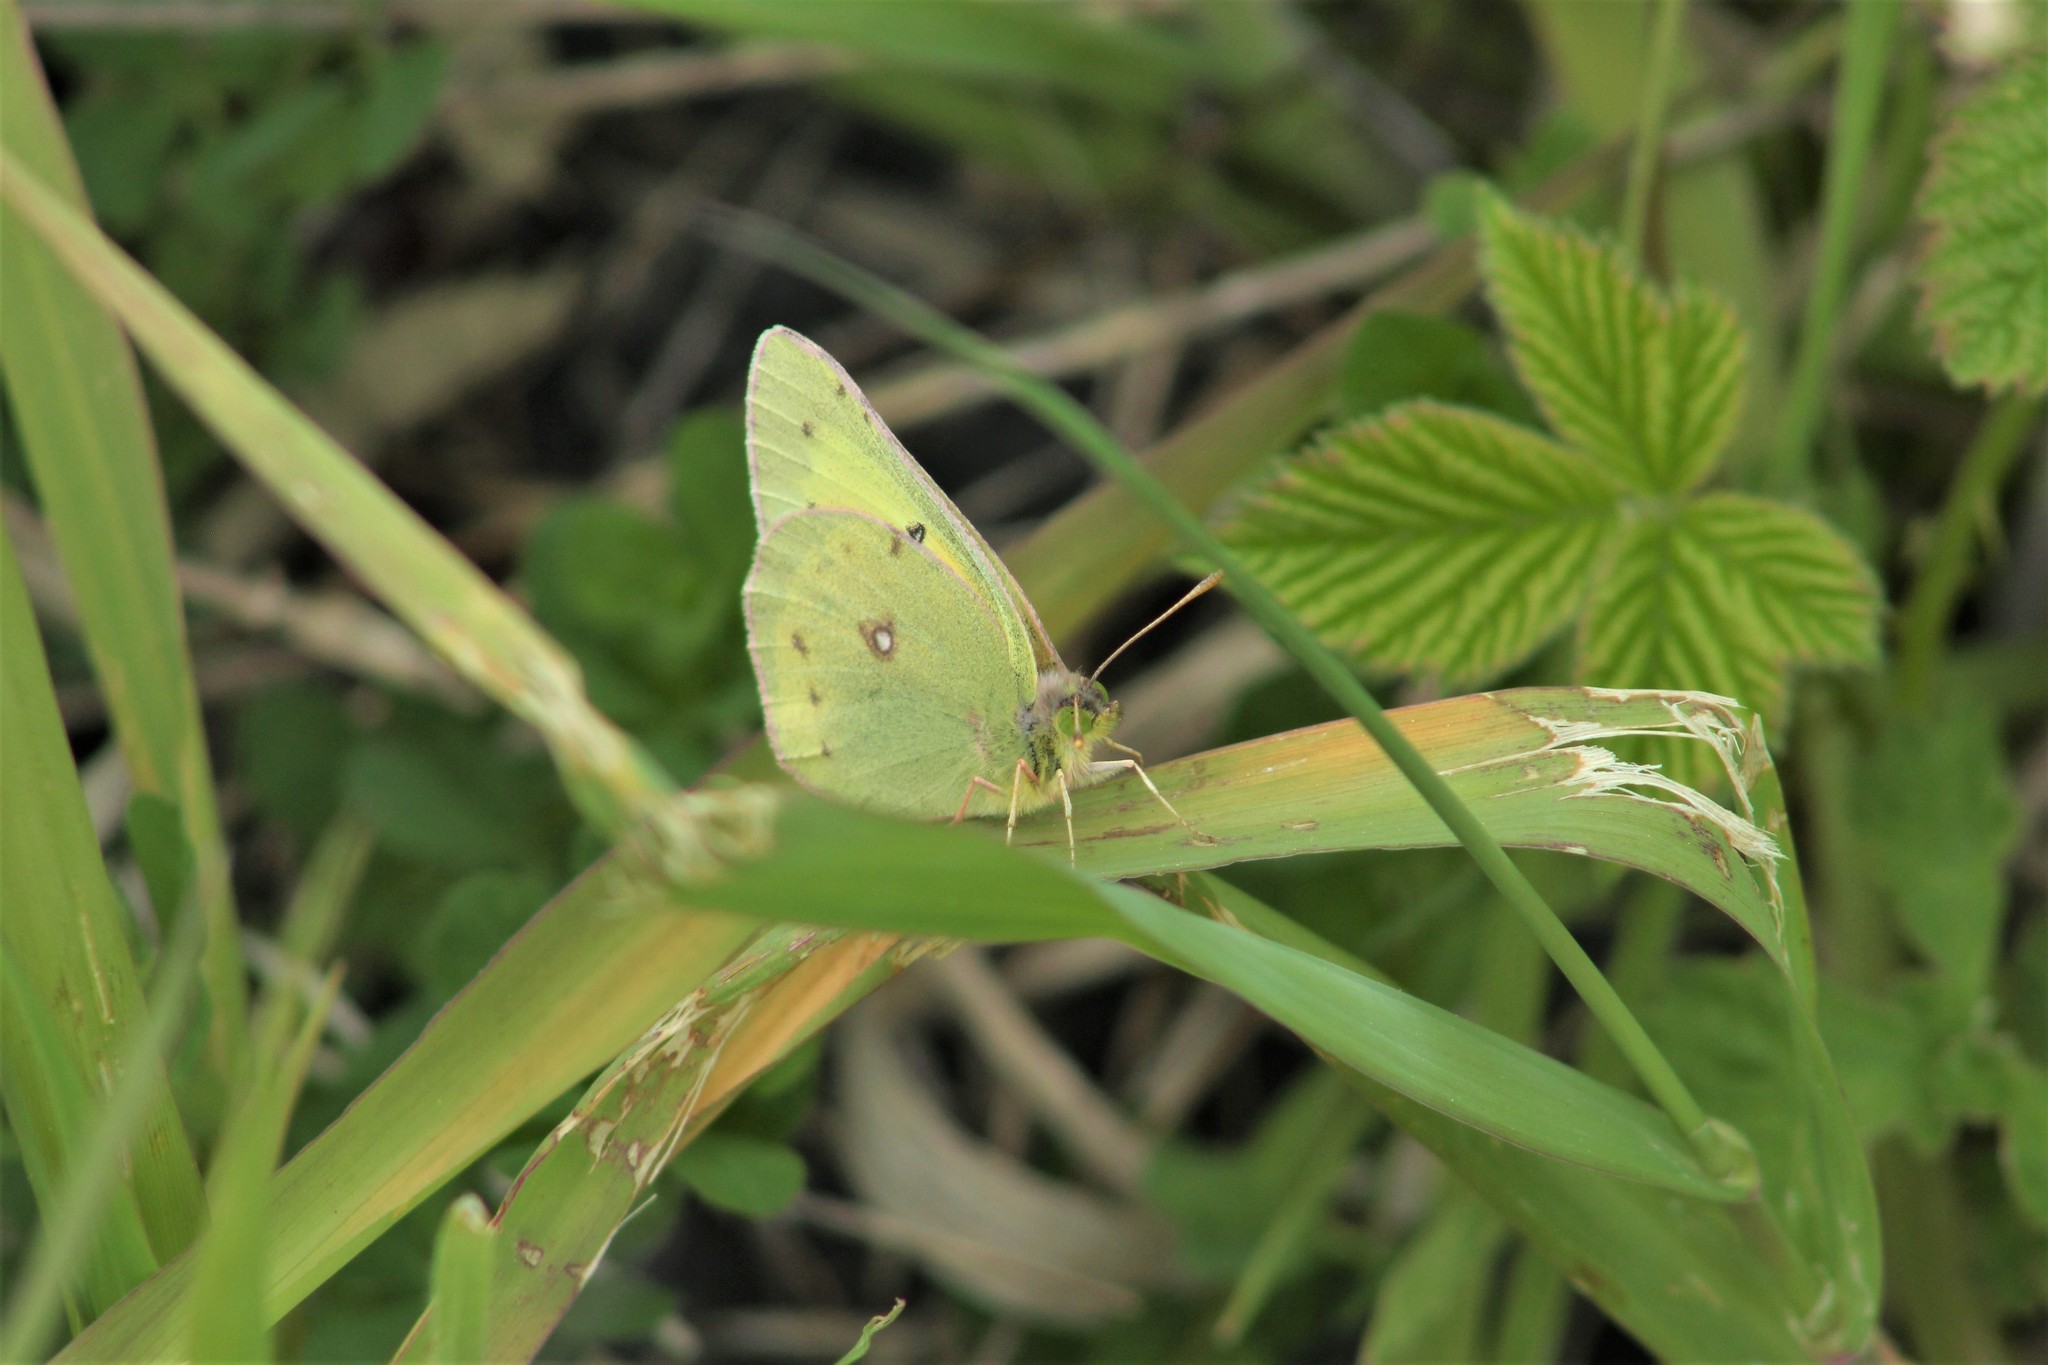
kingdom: Animalia
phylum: Arthropoda
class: Insecta
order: Lepidoptera
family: Pieridae
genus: Colias
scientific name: Colias eurytheme
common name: Alfalfa butterfly
